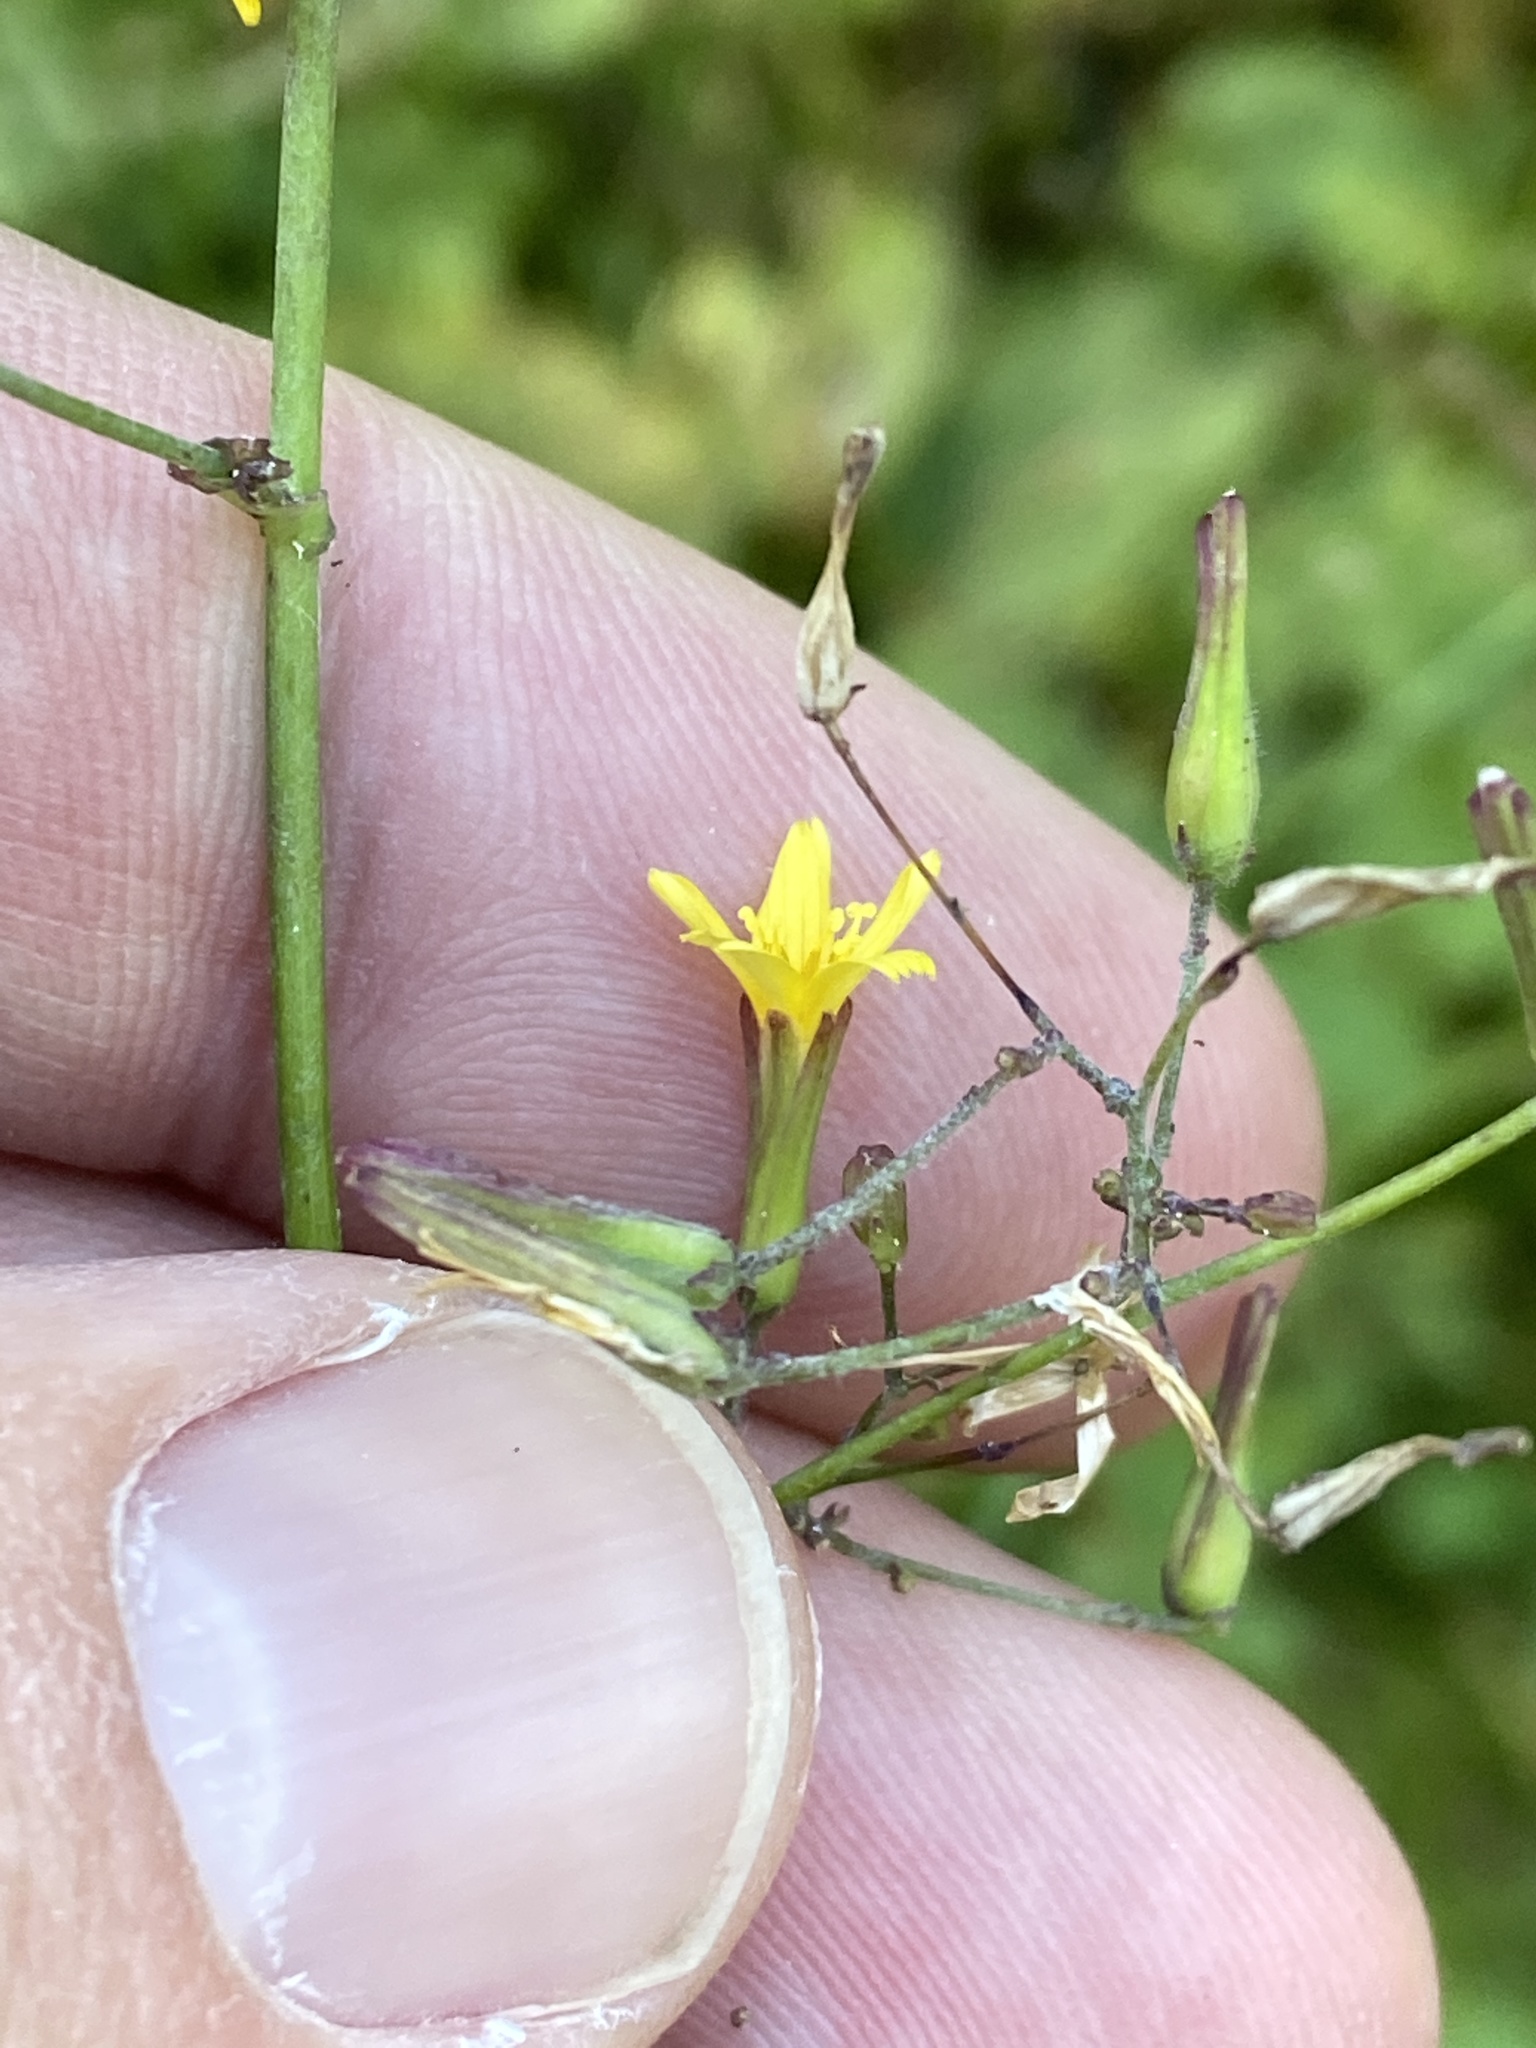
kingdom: Plantae
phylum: Tracheophyta
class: Magnoliopsida
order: Asterales
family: Asteraceae
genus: Mycelis
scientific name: Mycelis muralis
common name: Wall lettuce
